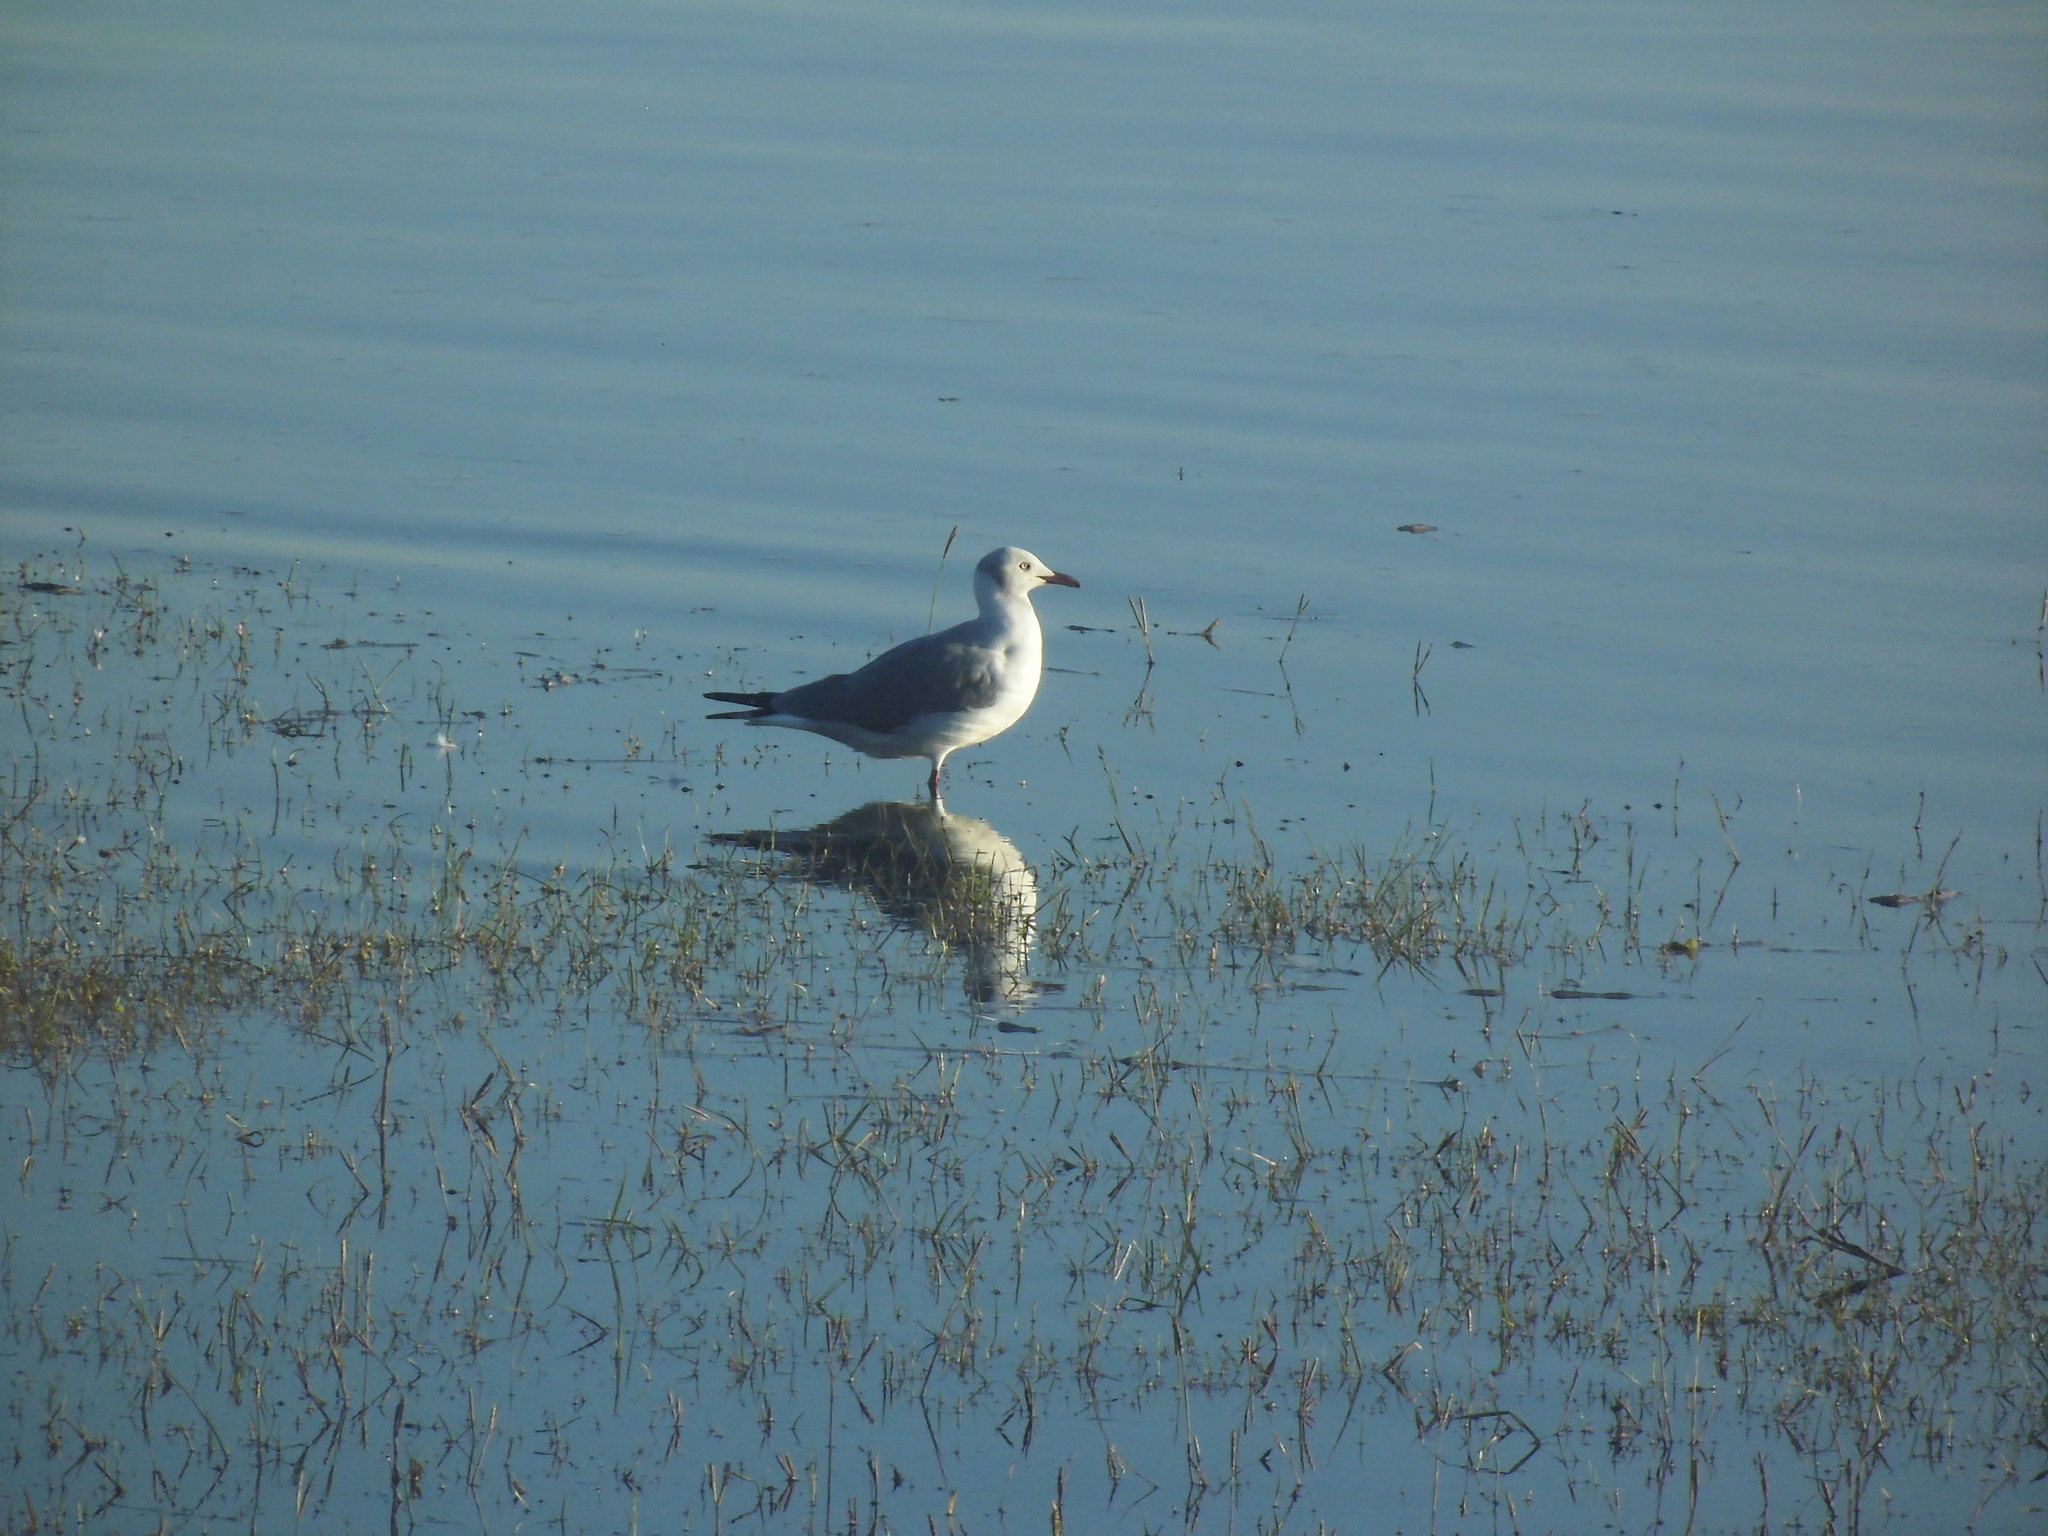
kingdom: Animalia
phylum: Chordata
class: Aves
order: Charadriiformes
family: Laridae
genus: Chroicocephalus
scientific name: Chroicocephalus cirrocephalus
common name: Grey-headed gull
